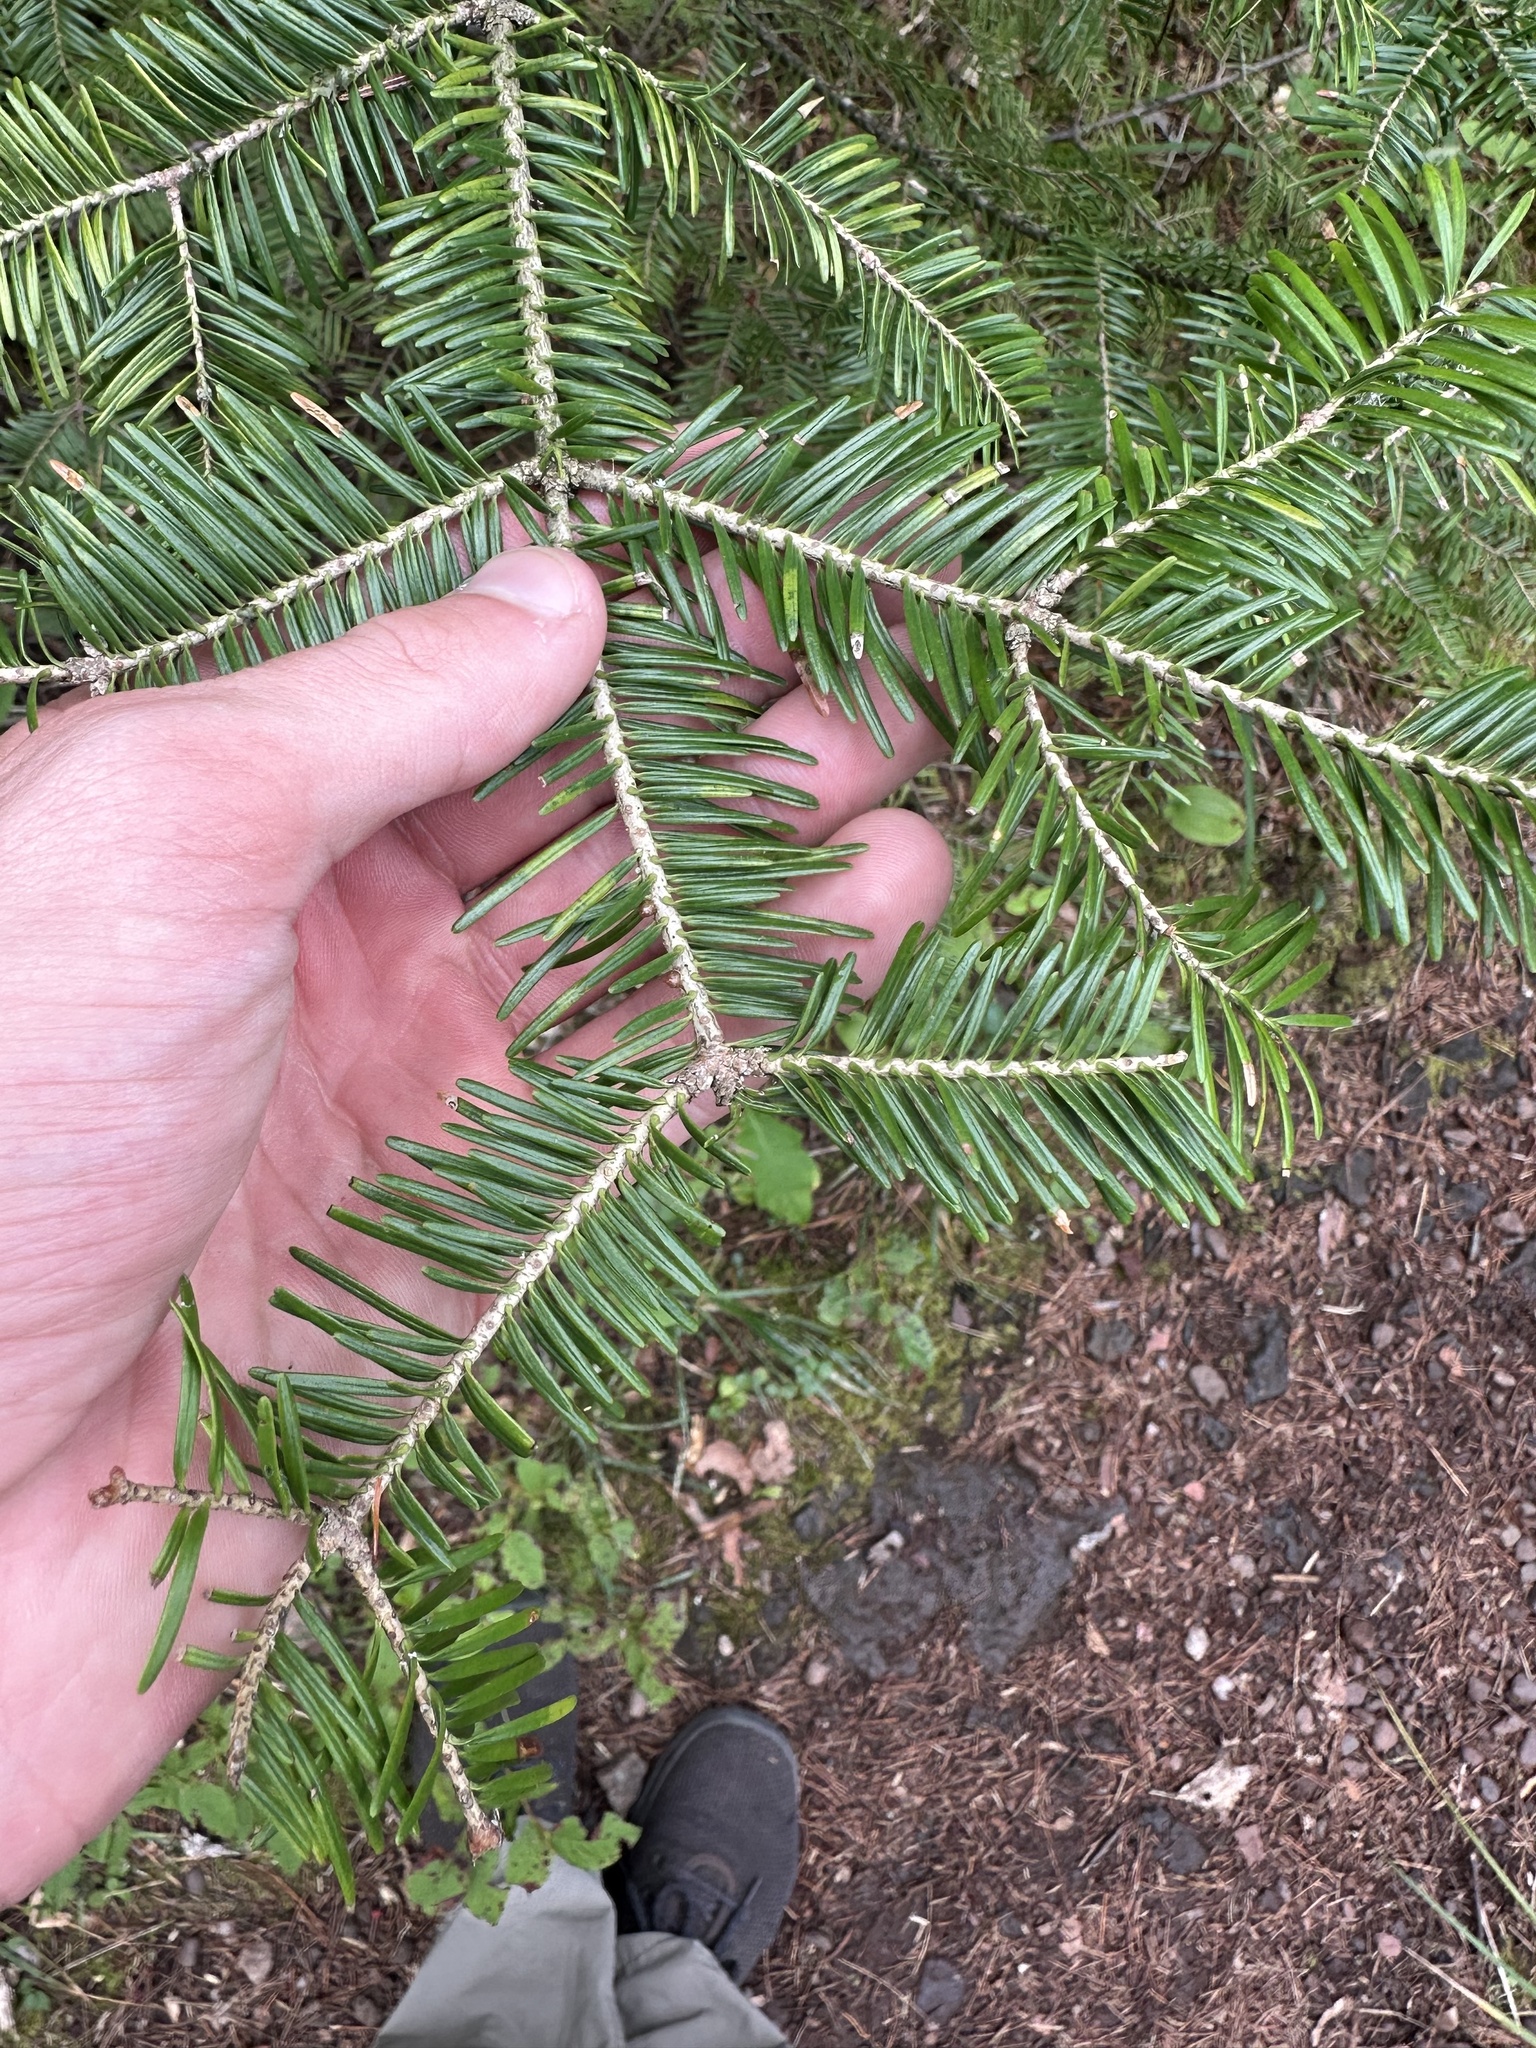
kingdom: Plantae
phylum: Tracheophyta
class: Pinopsida
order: Pinales
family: Pinaceae
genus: Abies
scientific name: Abies balsamea
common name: Balsam fir
